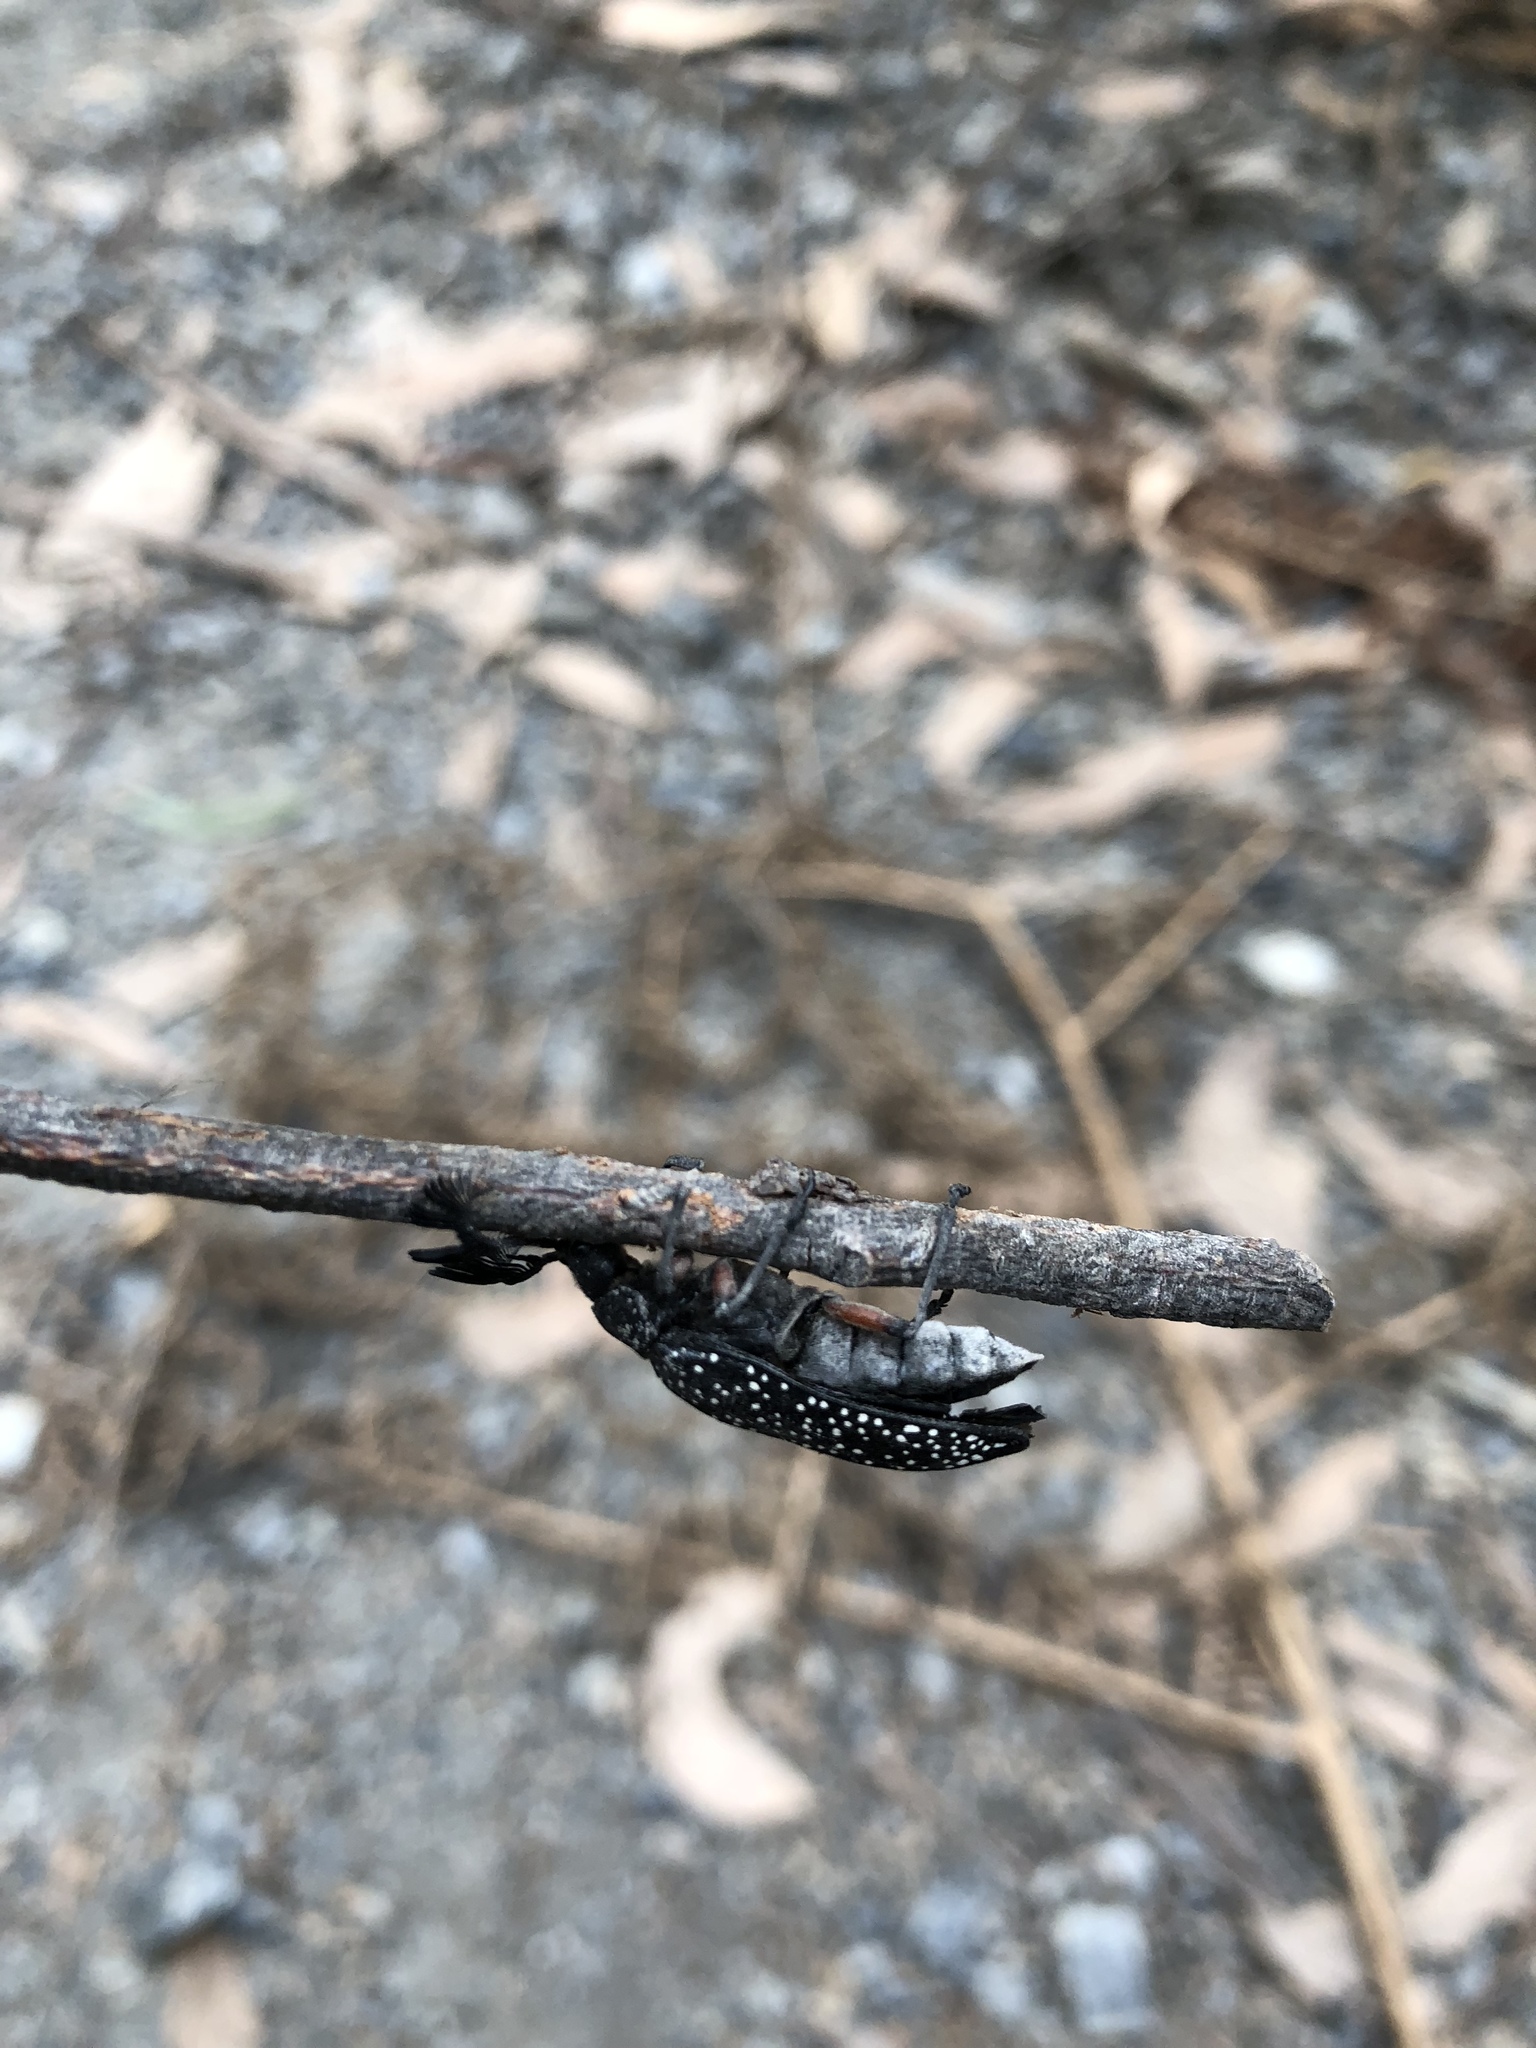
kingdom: Animalia
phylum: Arthropoda
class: Insecta
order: Coleoptera
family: Rhipiceridae
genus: Rhipicera
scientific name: Rhipicera femorata
